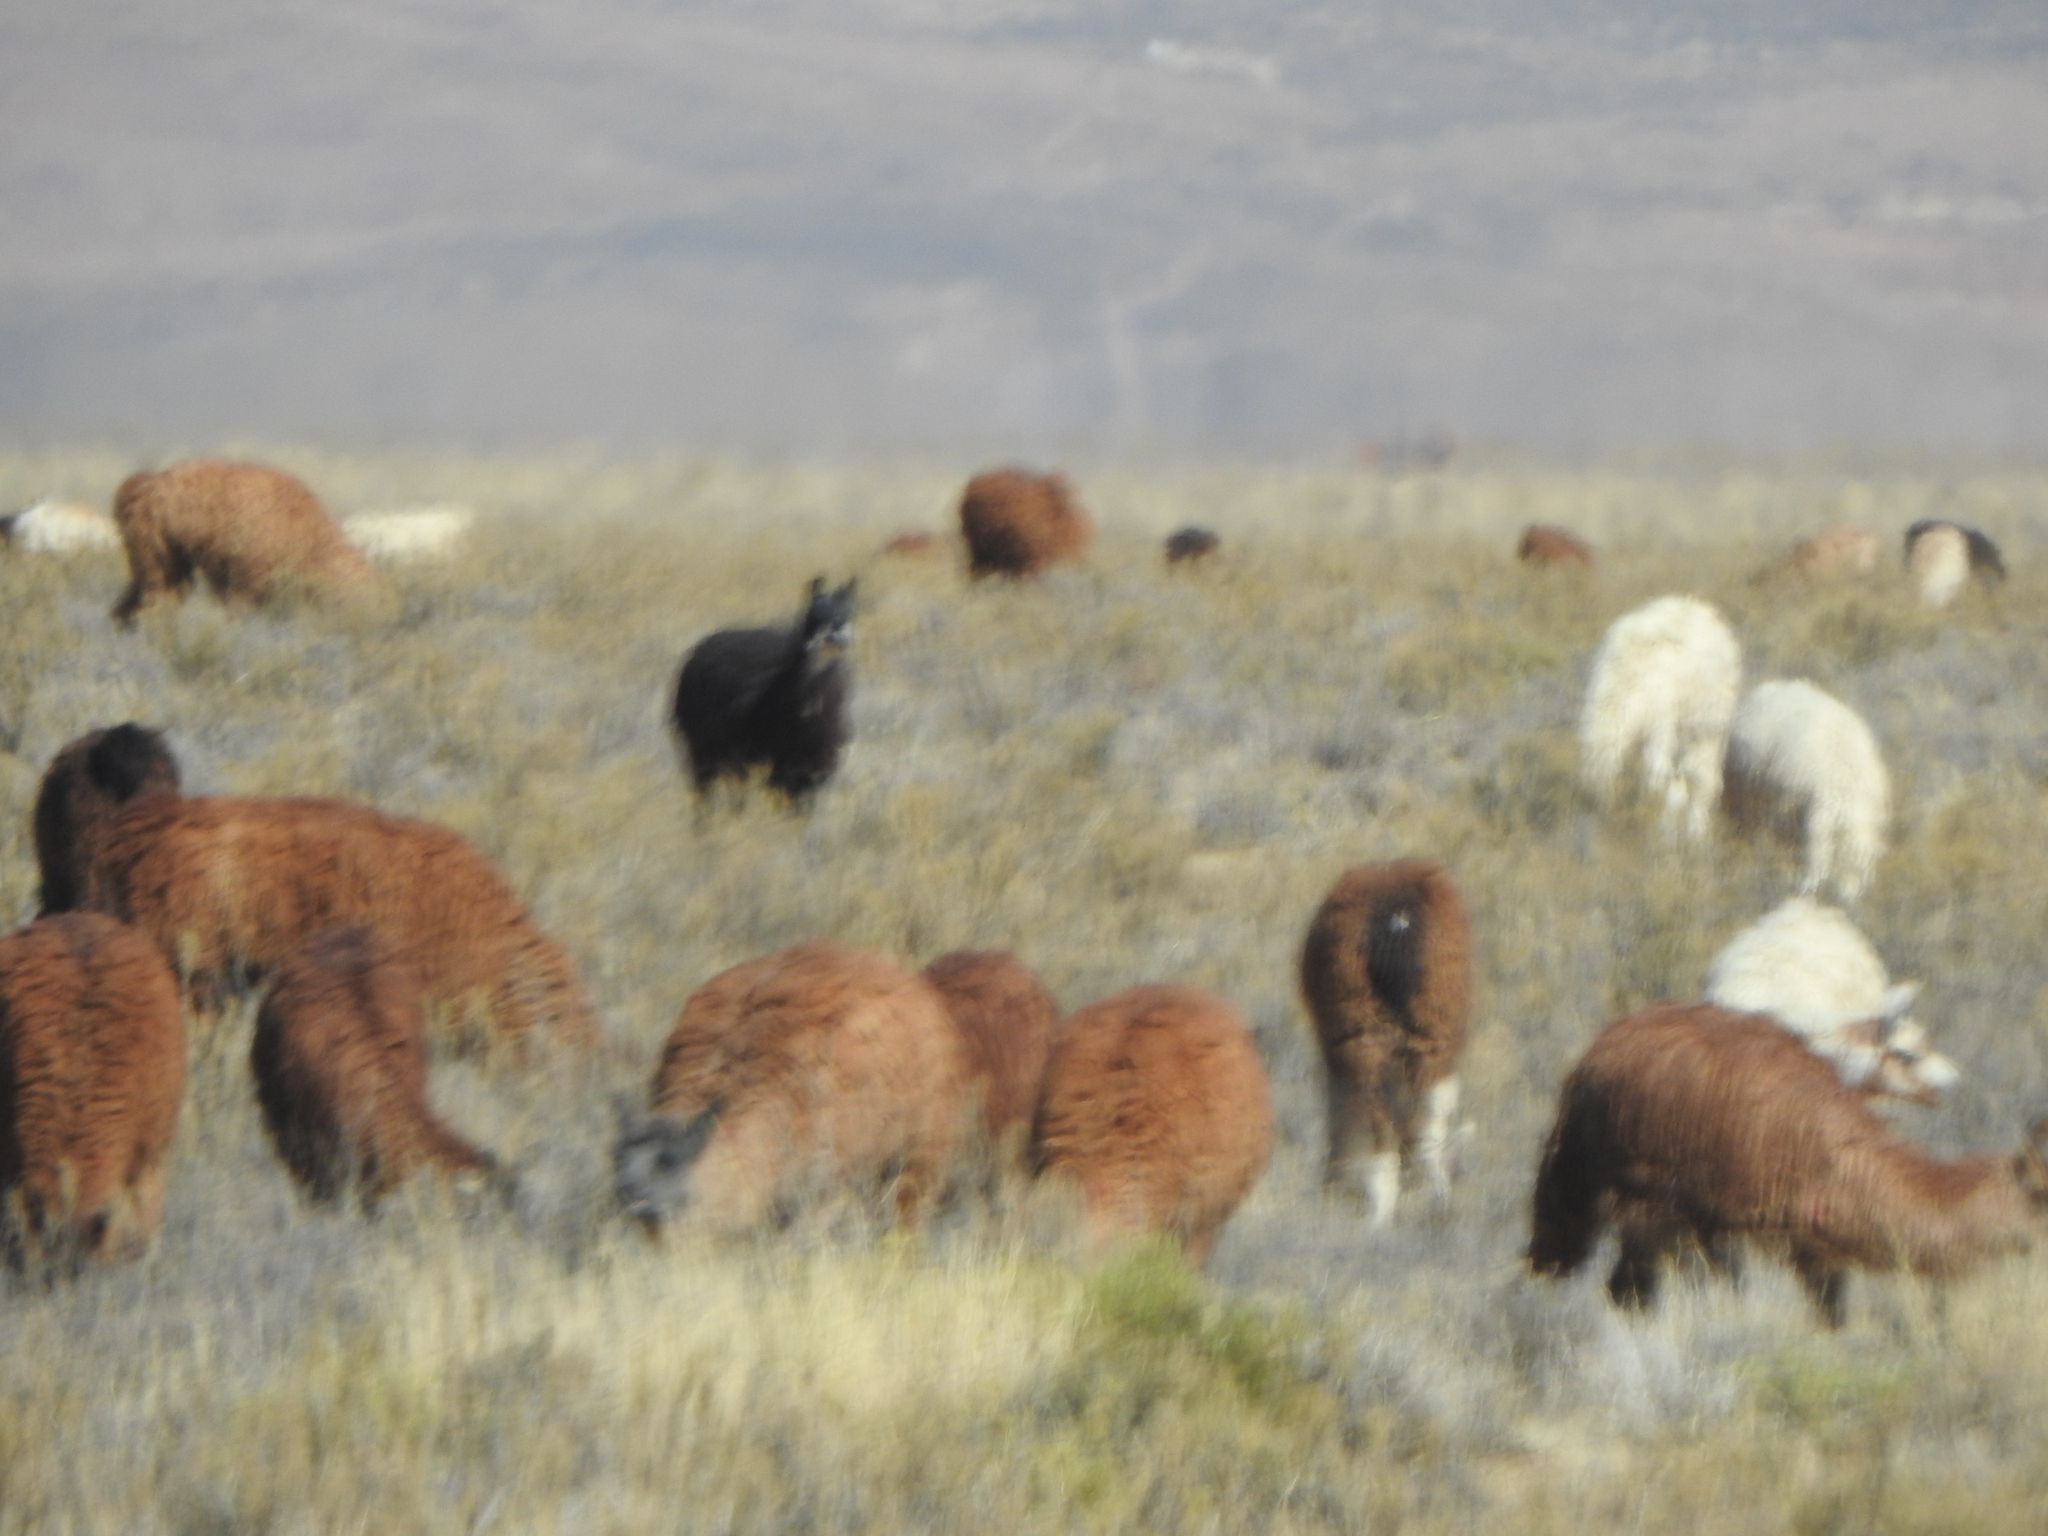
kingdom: Animalia
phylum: Chordata
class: Mammalia
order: Artiodactyla
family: Camelidae
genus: Lama
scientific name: Lama glama
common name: Llama
